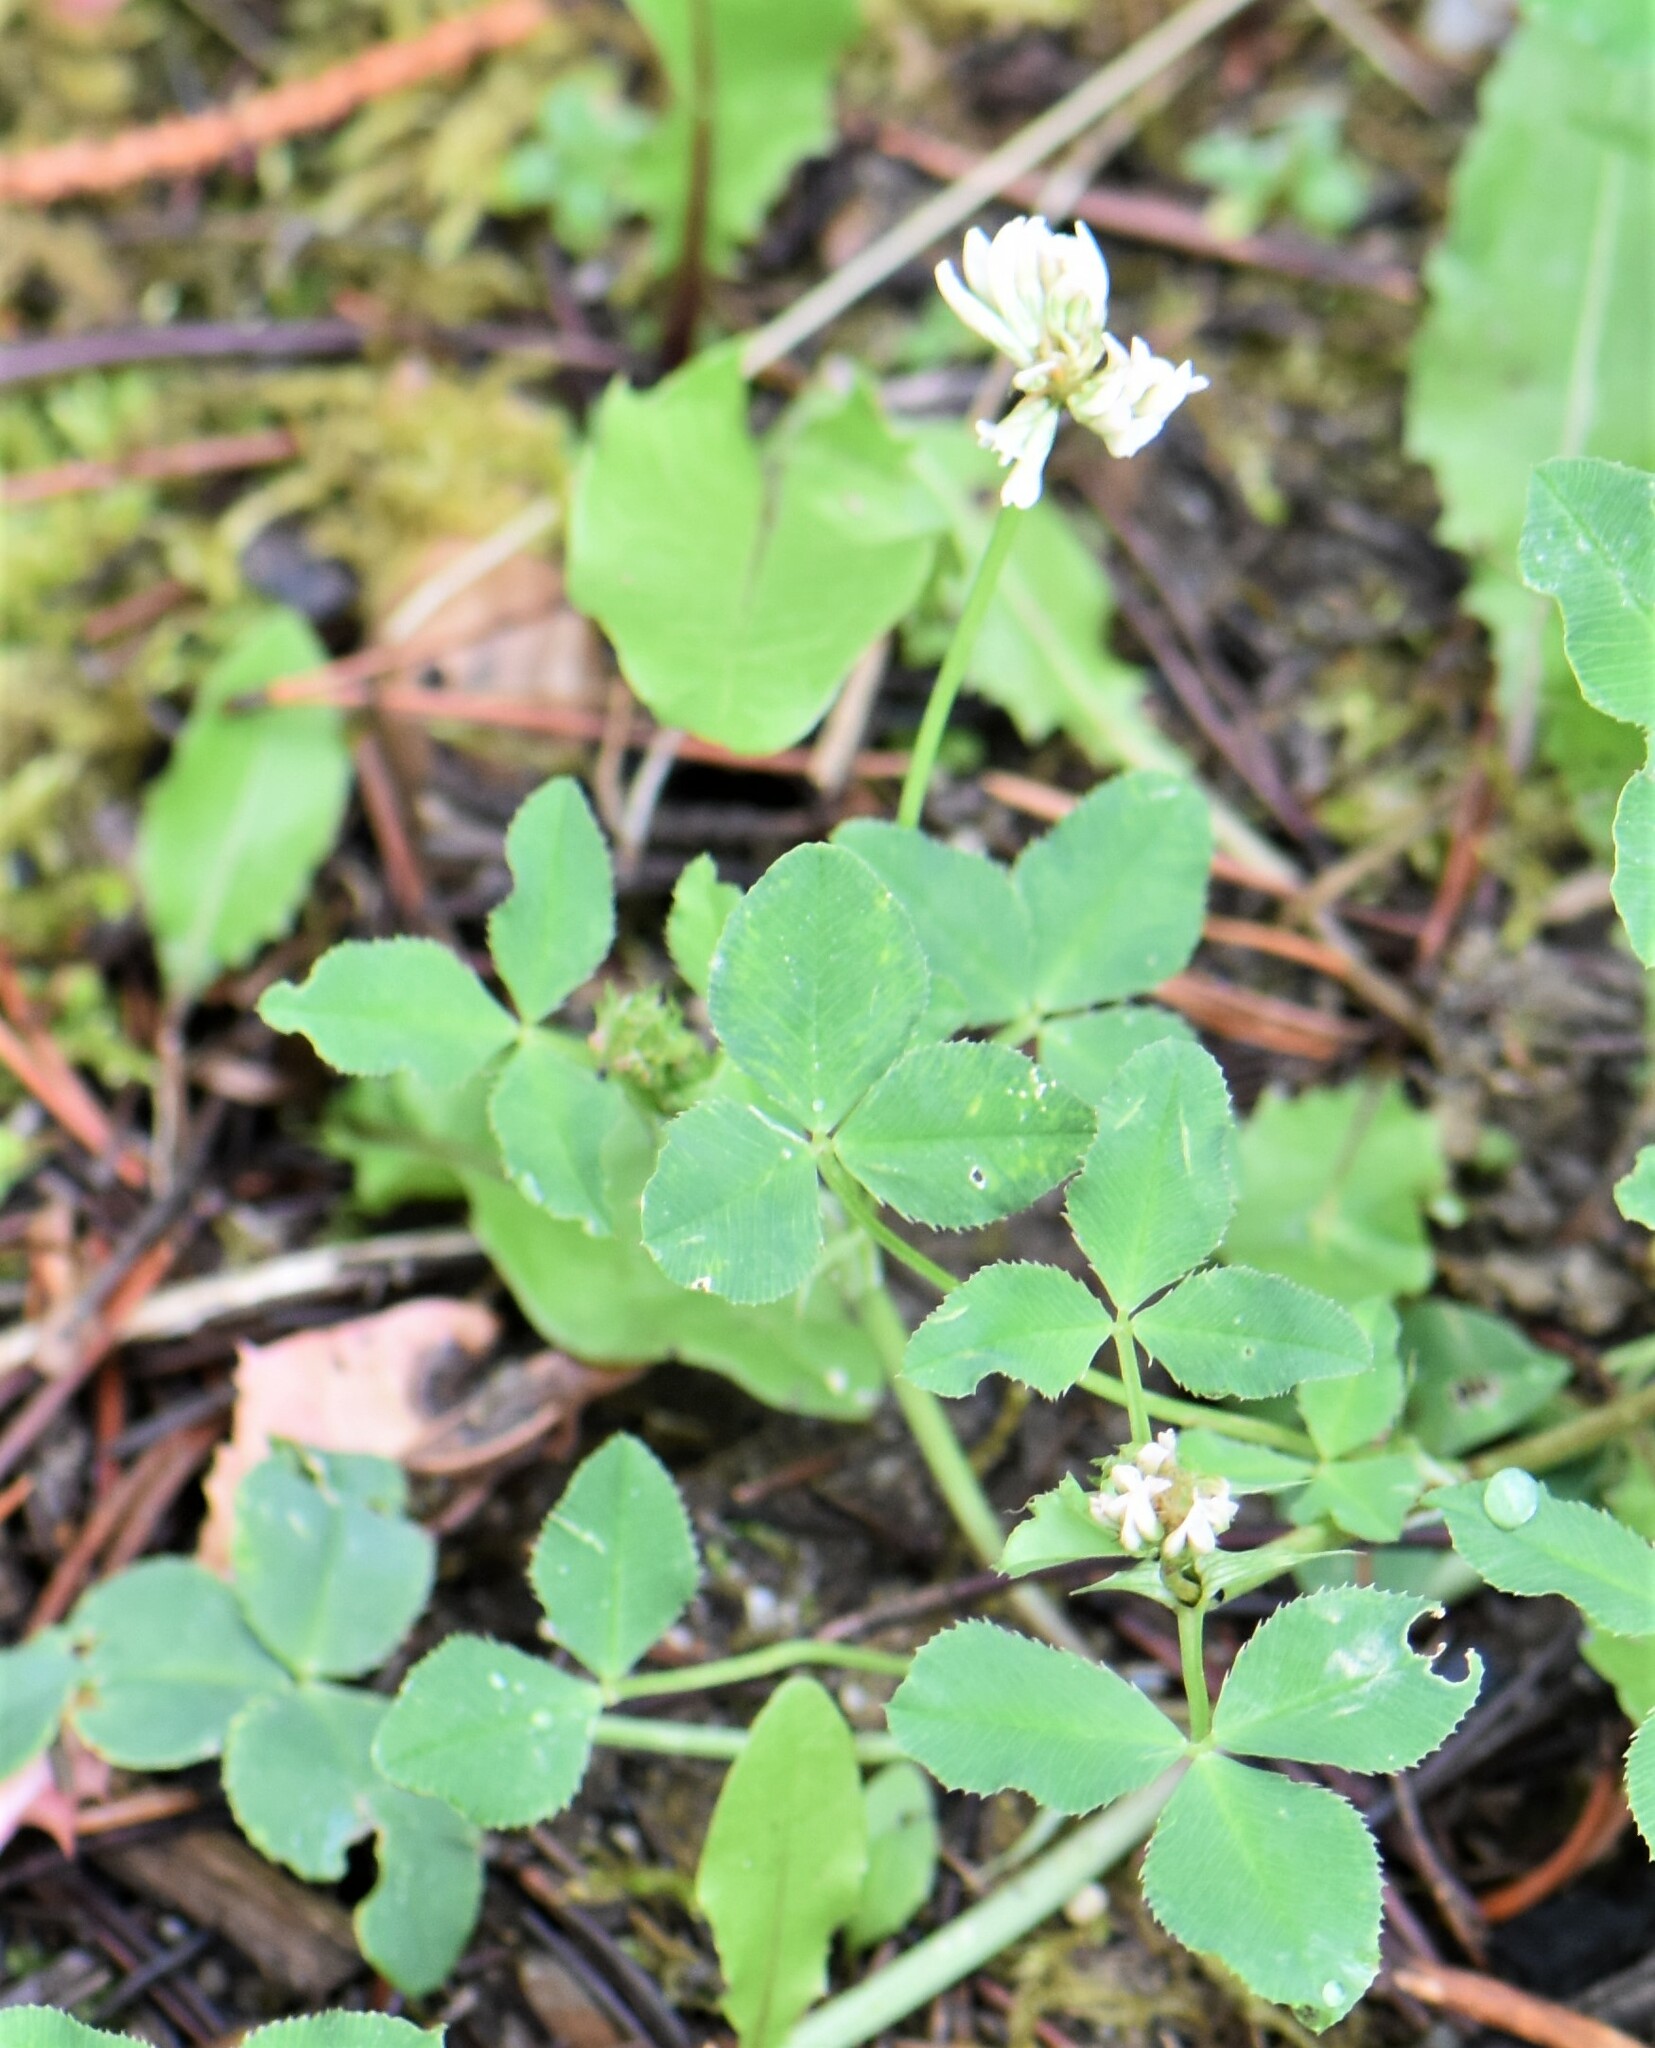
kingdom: Plantae
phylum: Tracheophyta
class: Magnoliopsida
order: Fabales
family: Fabaceae
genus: Trifolium
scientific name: Trifolium repens
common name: White clover
